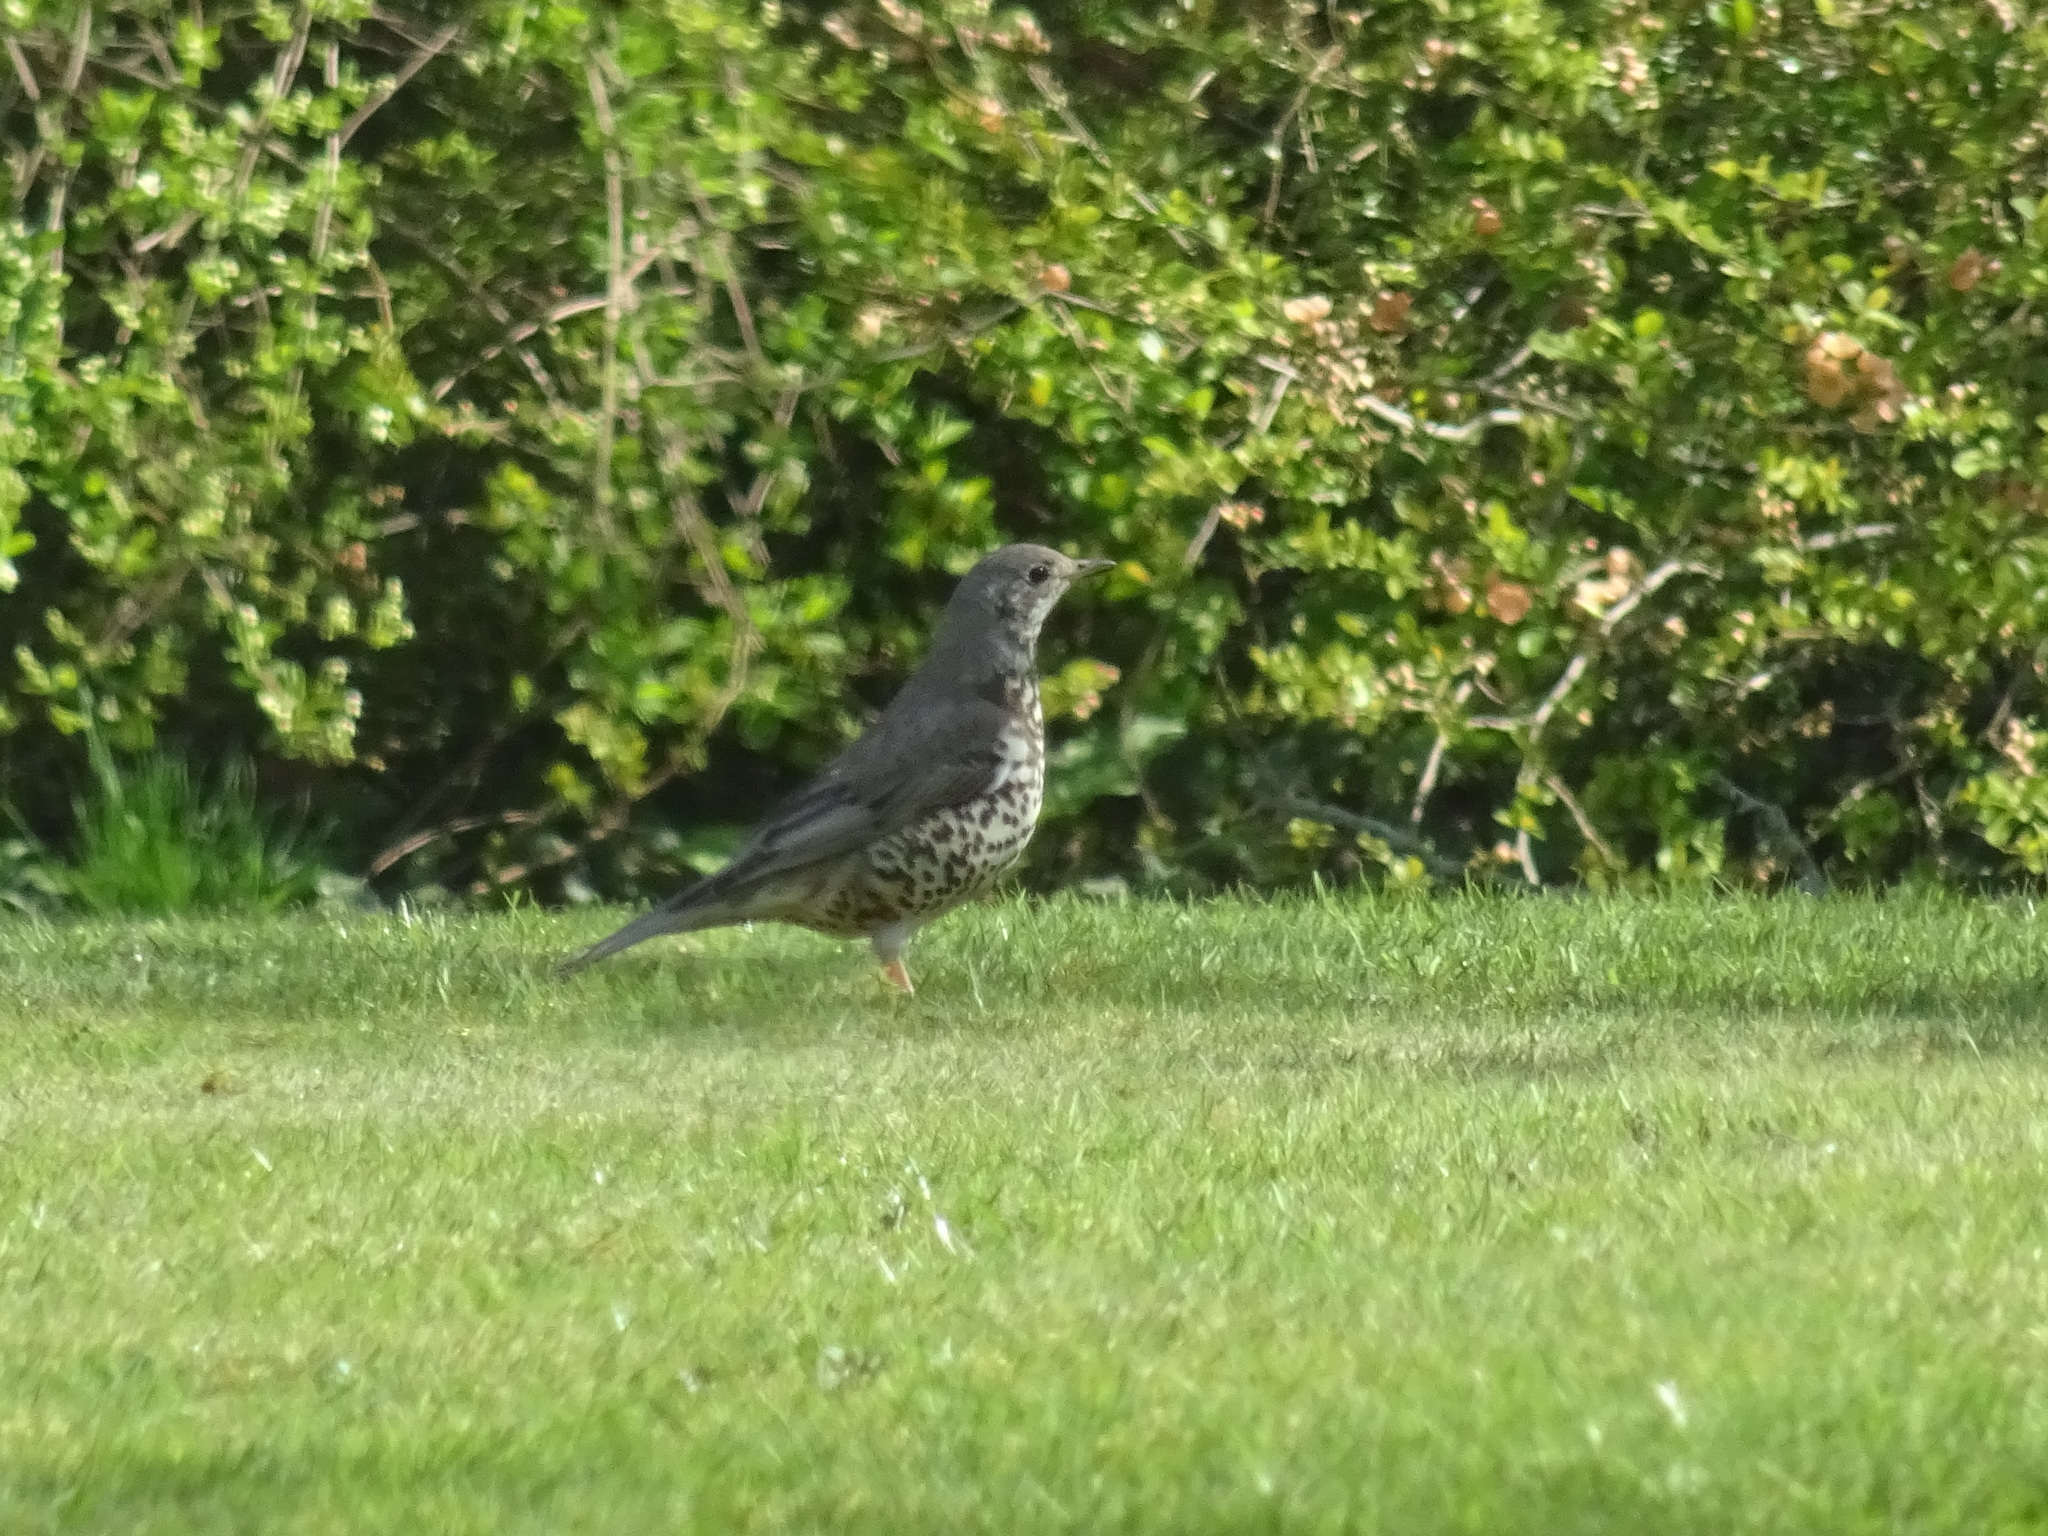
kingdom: Animalia
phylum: Chordata
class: Aves
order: Passeriformes
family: Turdidae
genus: Turdus
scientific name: Turdus viscivorus
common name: Mistle thrush
